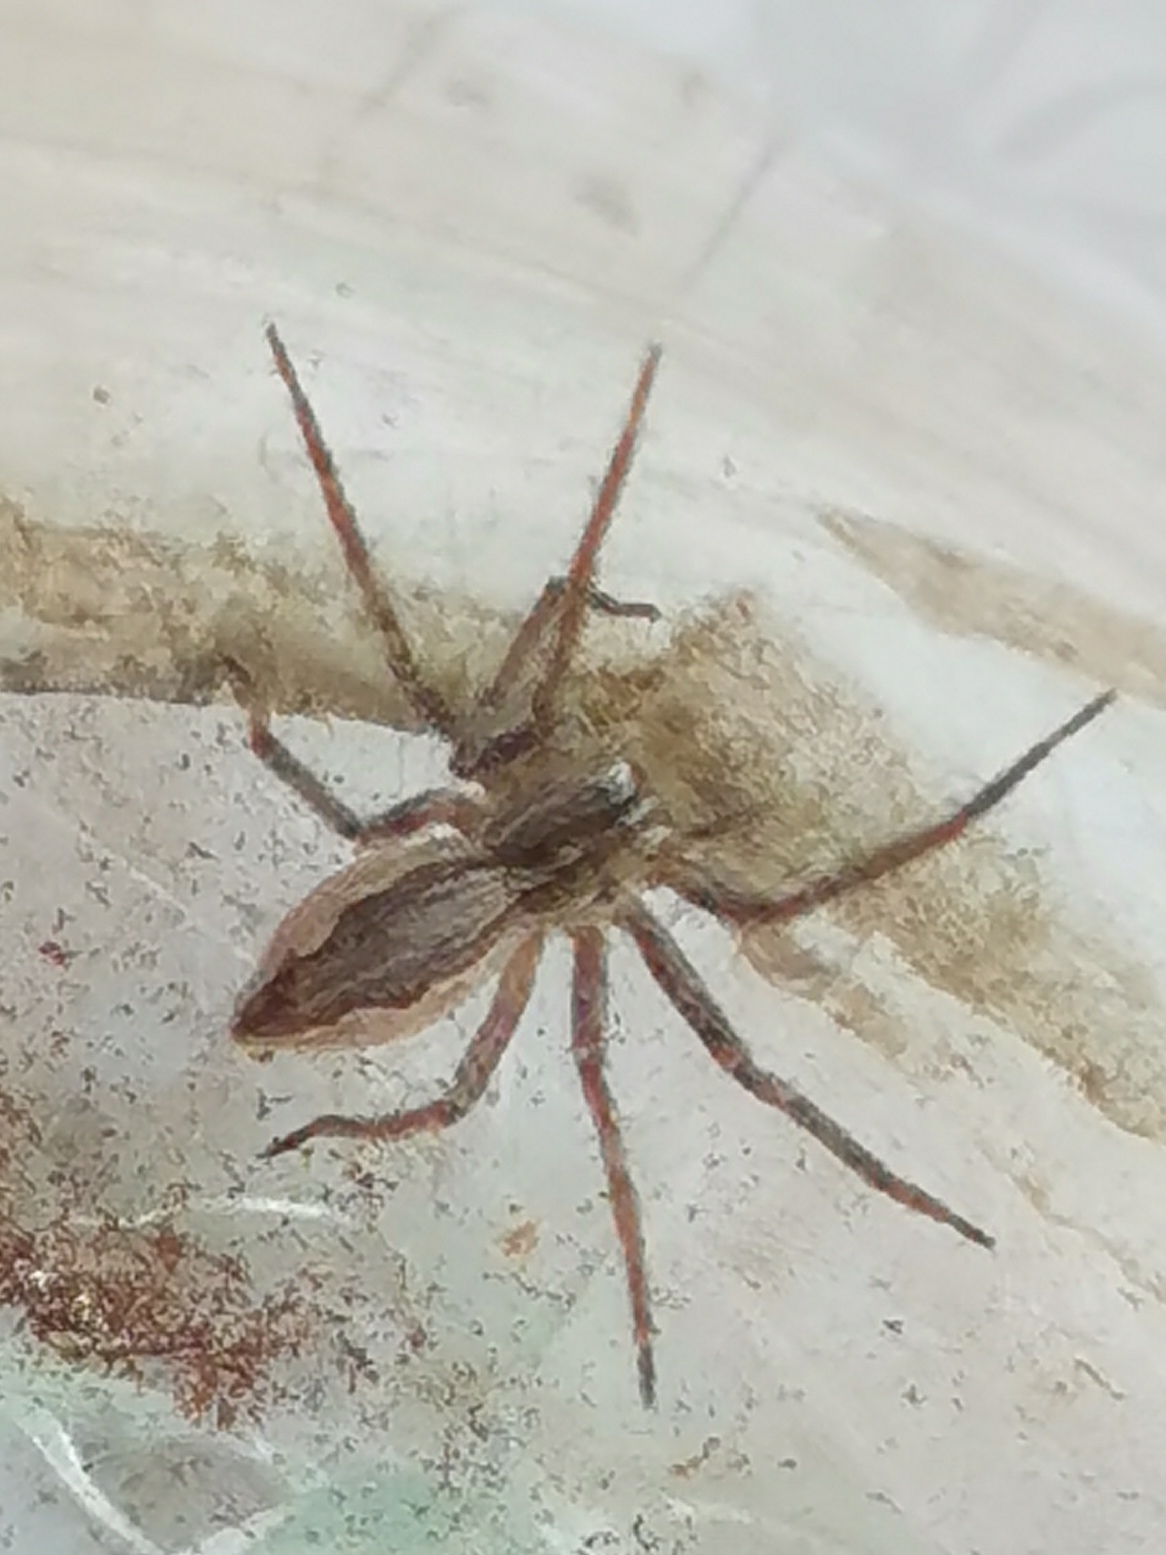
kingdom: Animalia
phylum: Arthropoda
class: Arachnida
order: Araneae
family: Pisauridae
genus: Pisaura
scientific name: Pisaura
